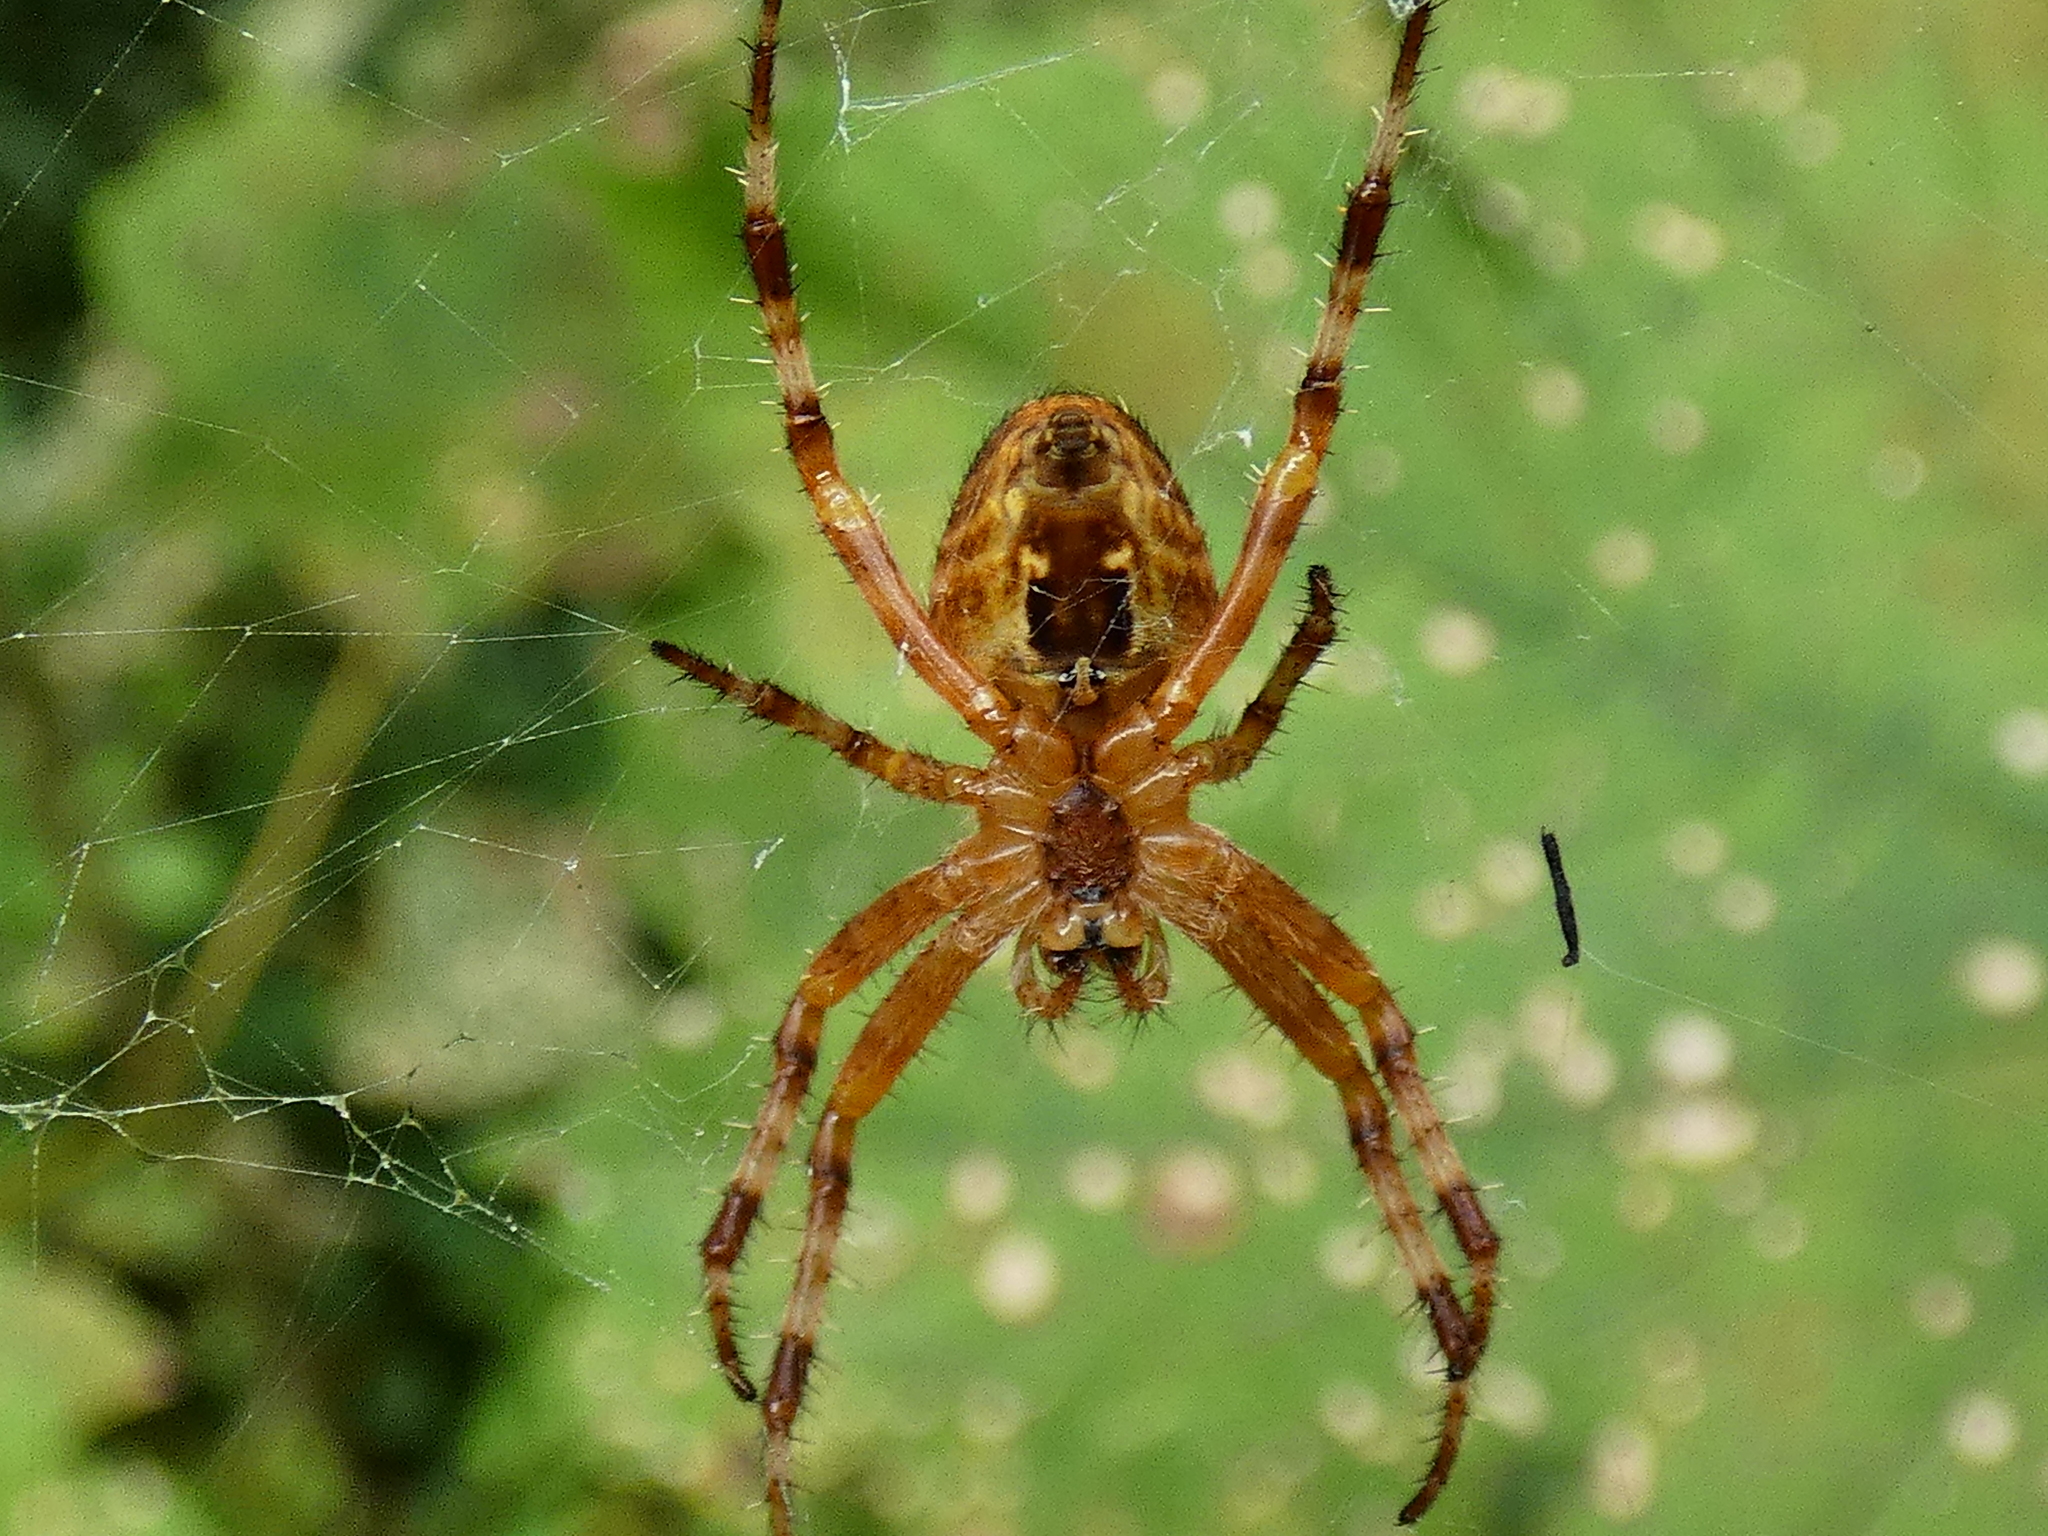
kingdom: Animalia
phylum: Arthropoda
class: Arachnida
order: Araneae
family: Araneidae
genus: Araneus
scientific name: Araneus diadematus
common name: Cross orbweaver
